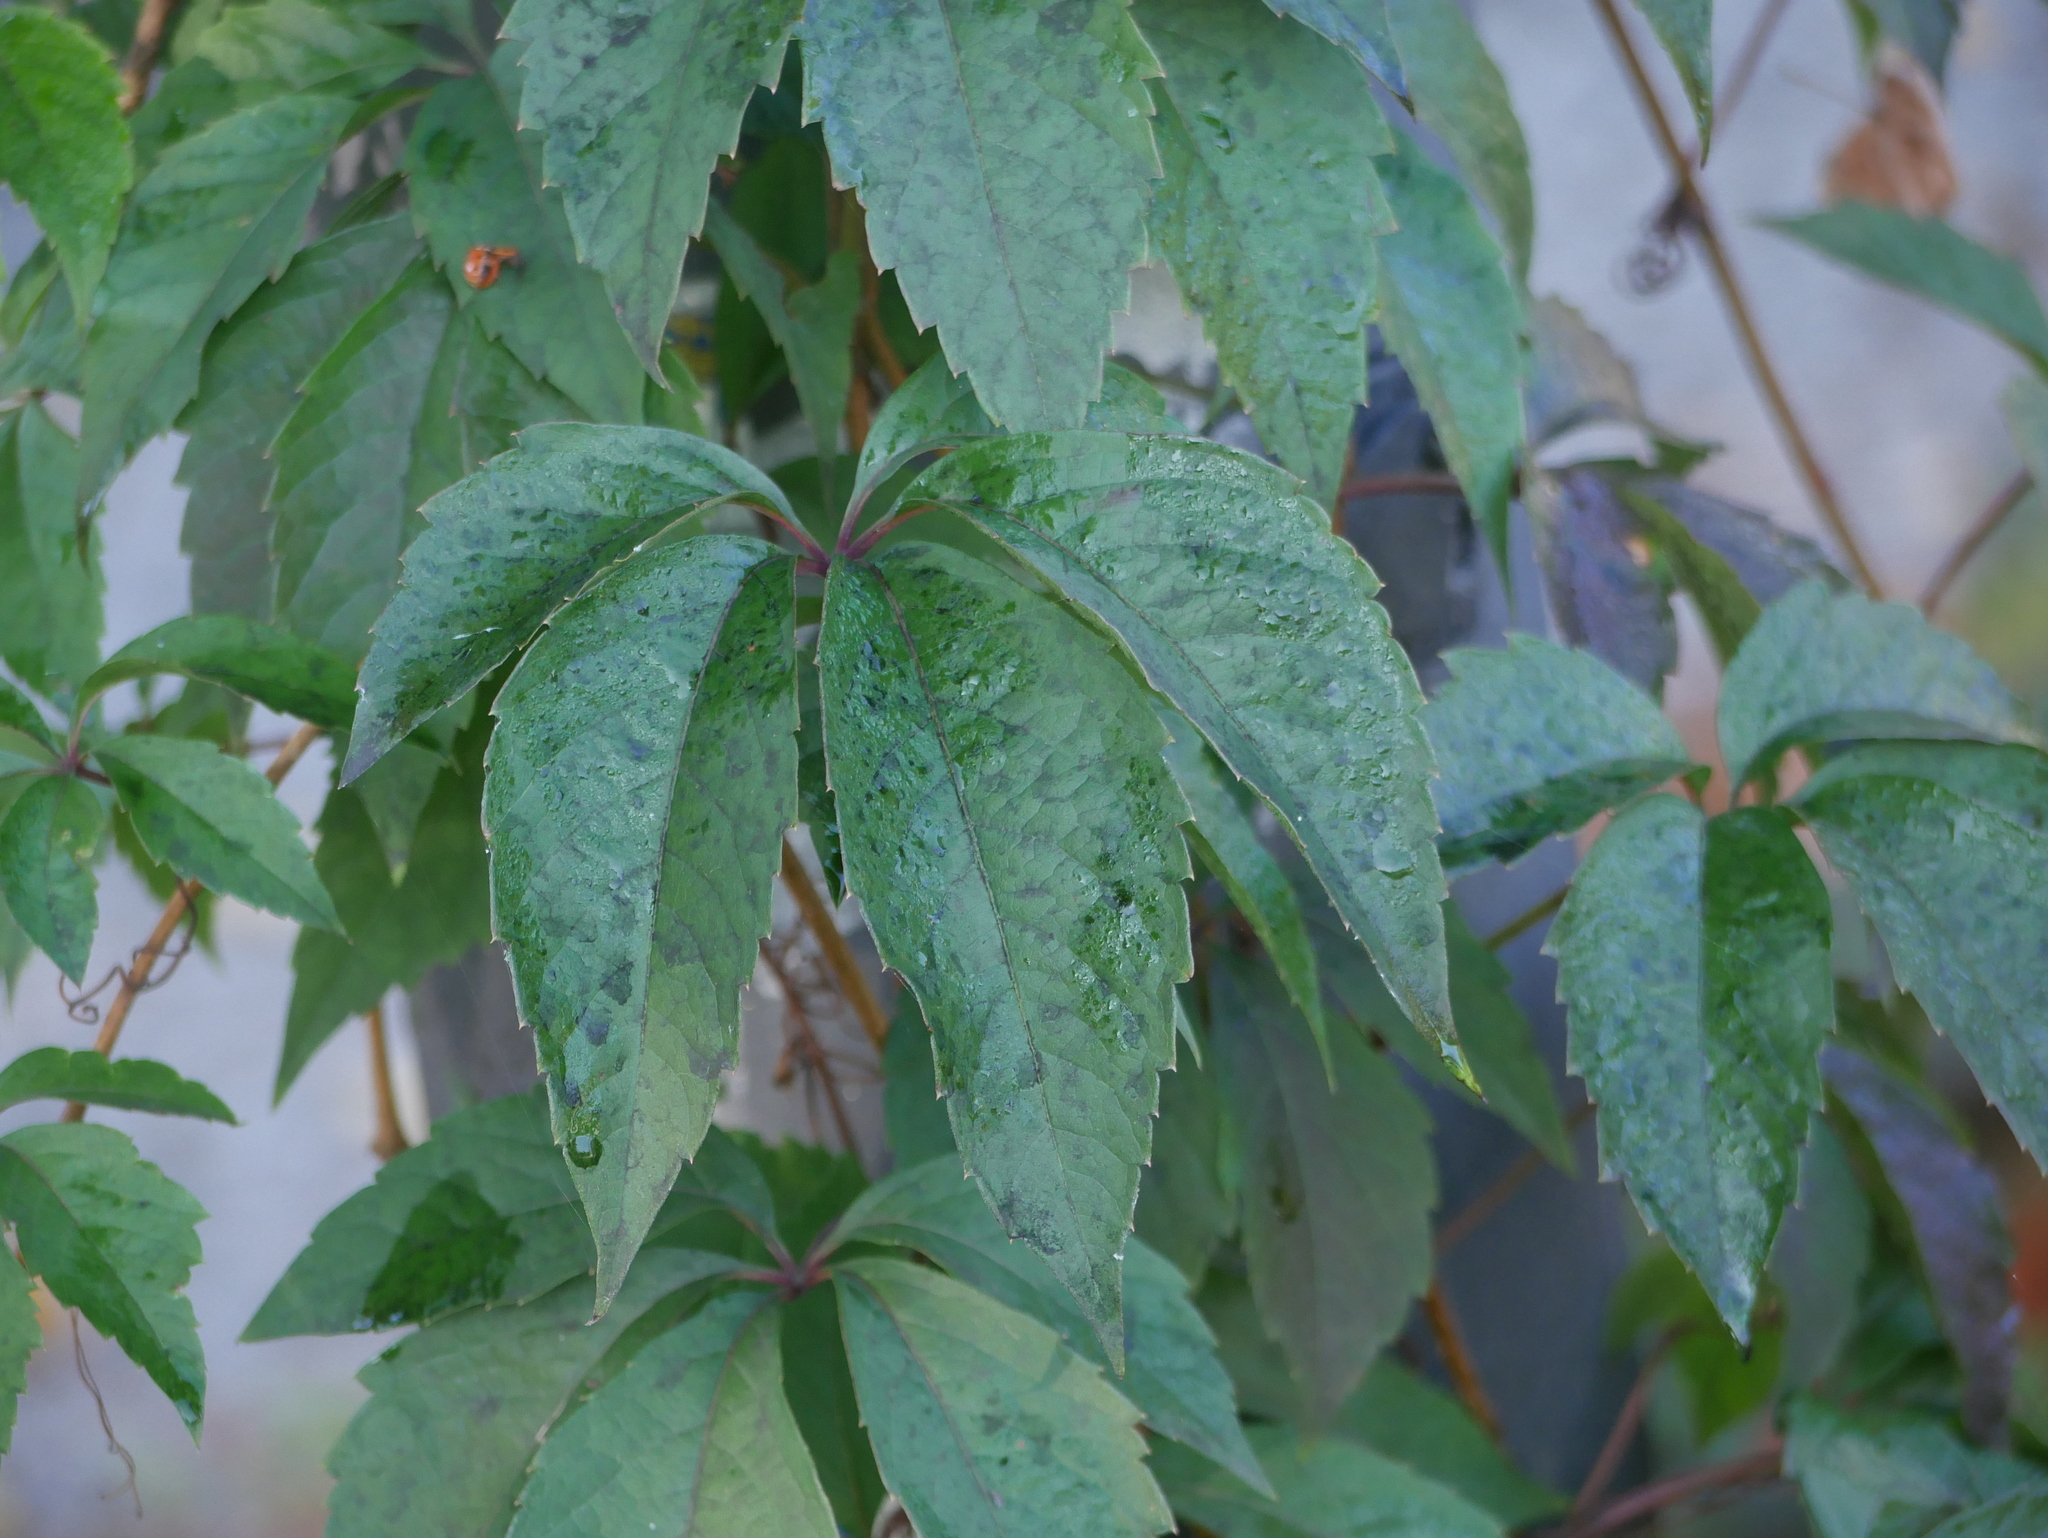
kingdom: Plantae
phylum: Tracheophyta
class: Magnoliopsida
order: Vitales
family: Vitaceae
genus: Parthenocissus
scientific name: Parthenocissus quinquefolia
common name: Virginia-creeper
